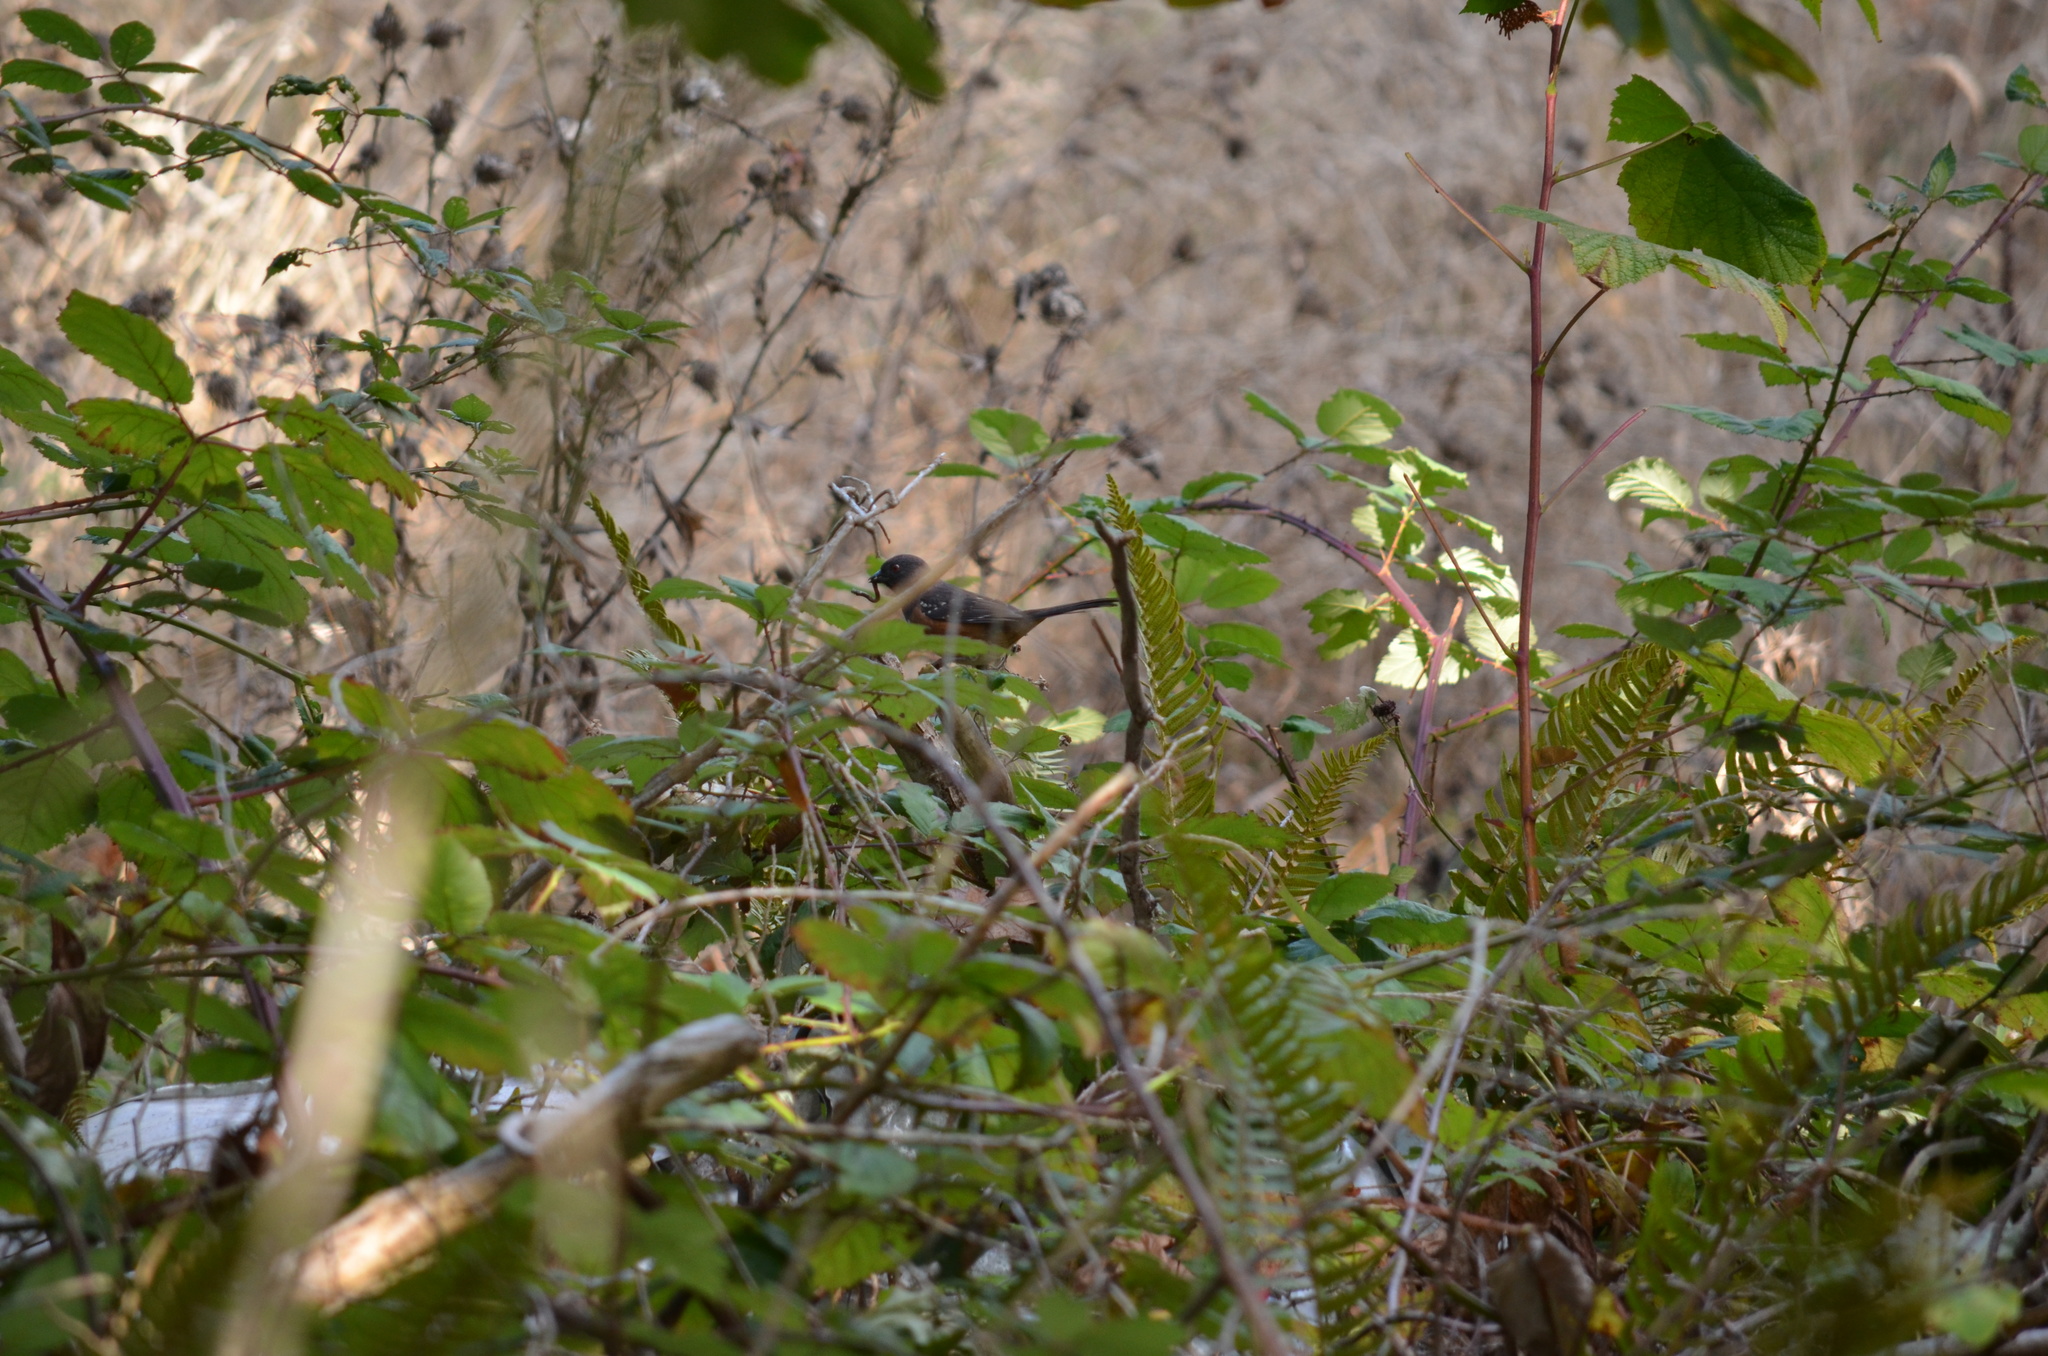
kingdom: Animalia
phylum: Chordata
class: Aves
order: Passeriformes
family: Passerellidae
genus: Pipilo
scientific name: Pipilo maculatus
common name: Spotted towhee
